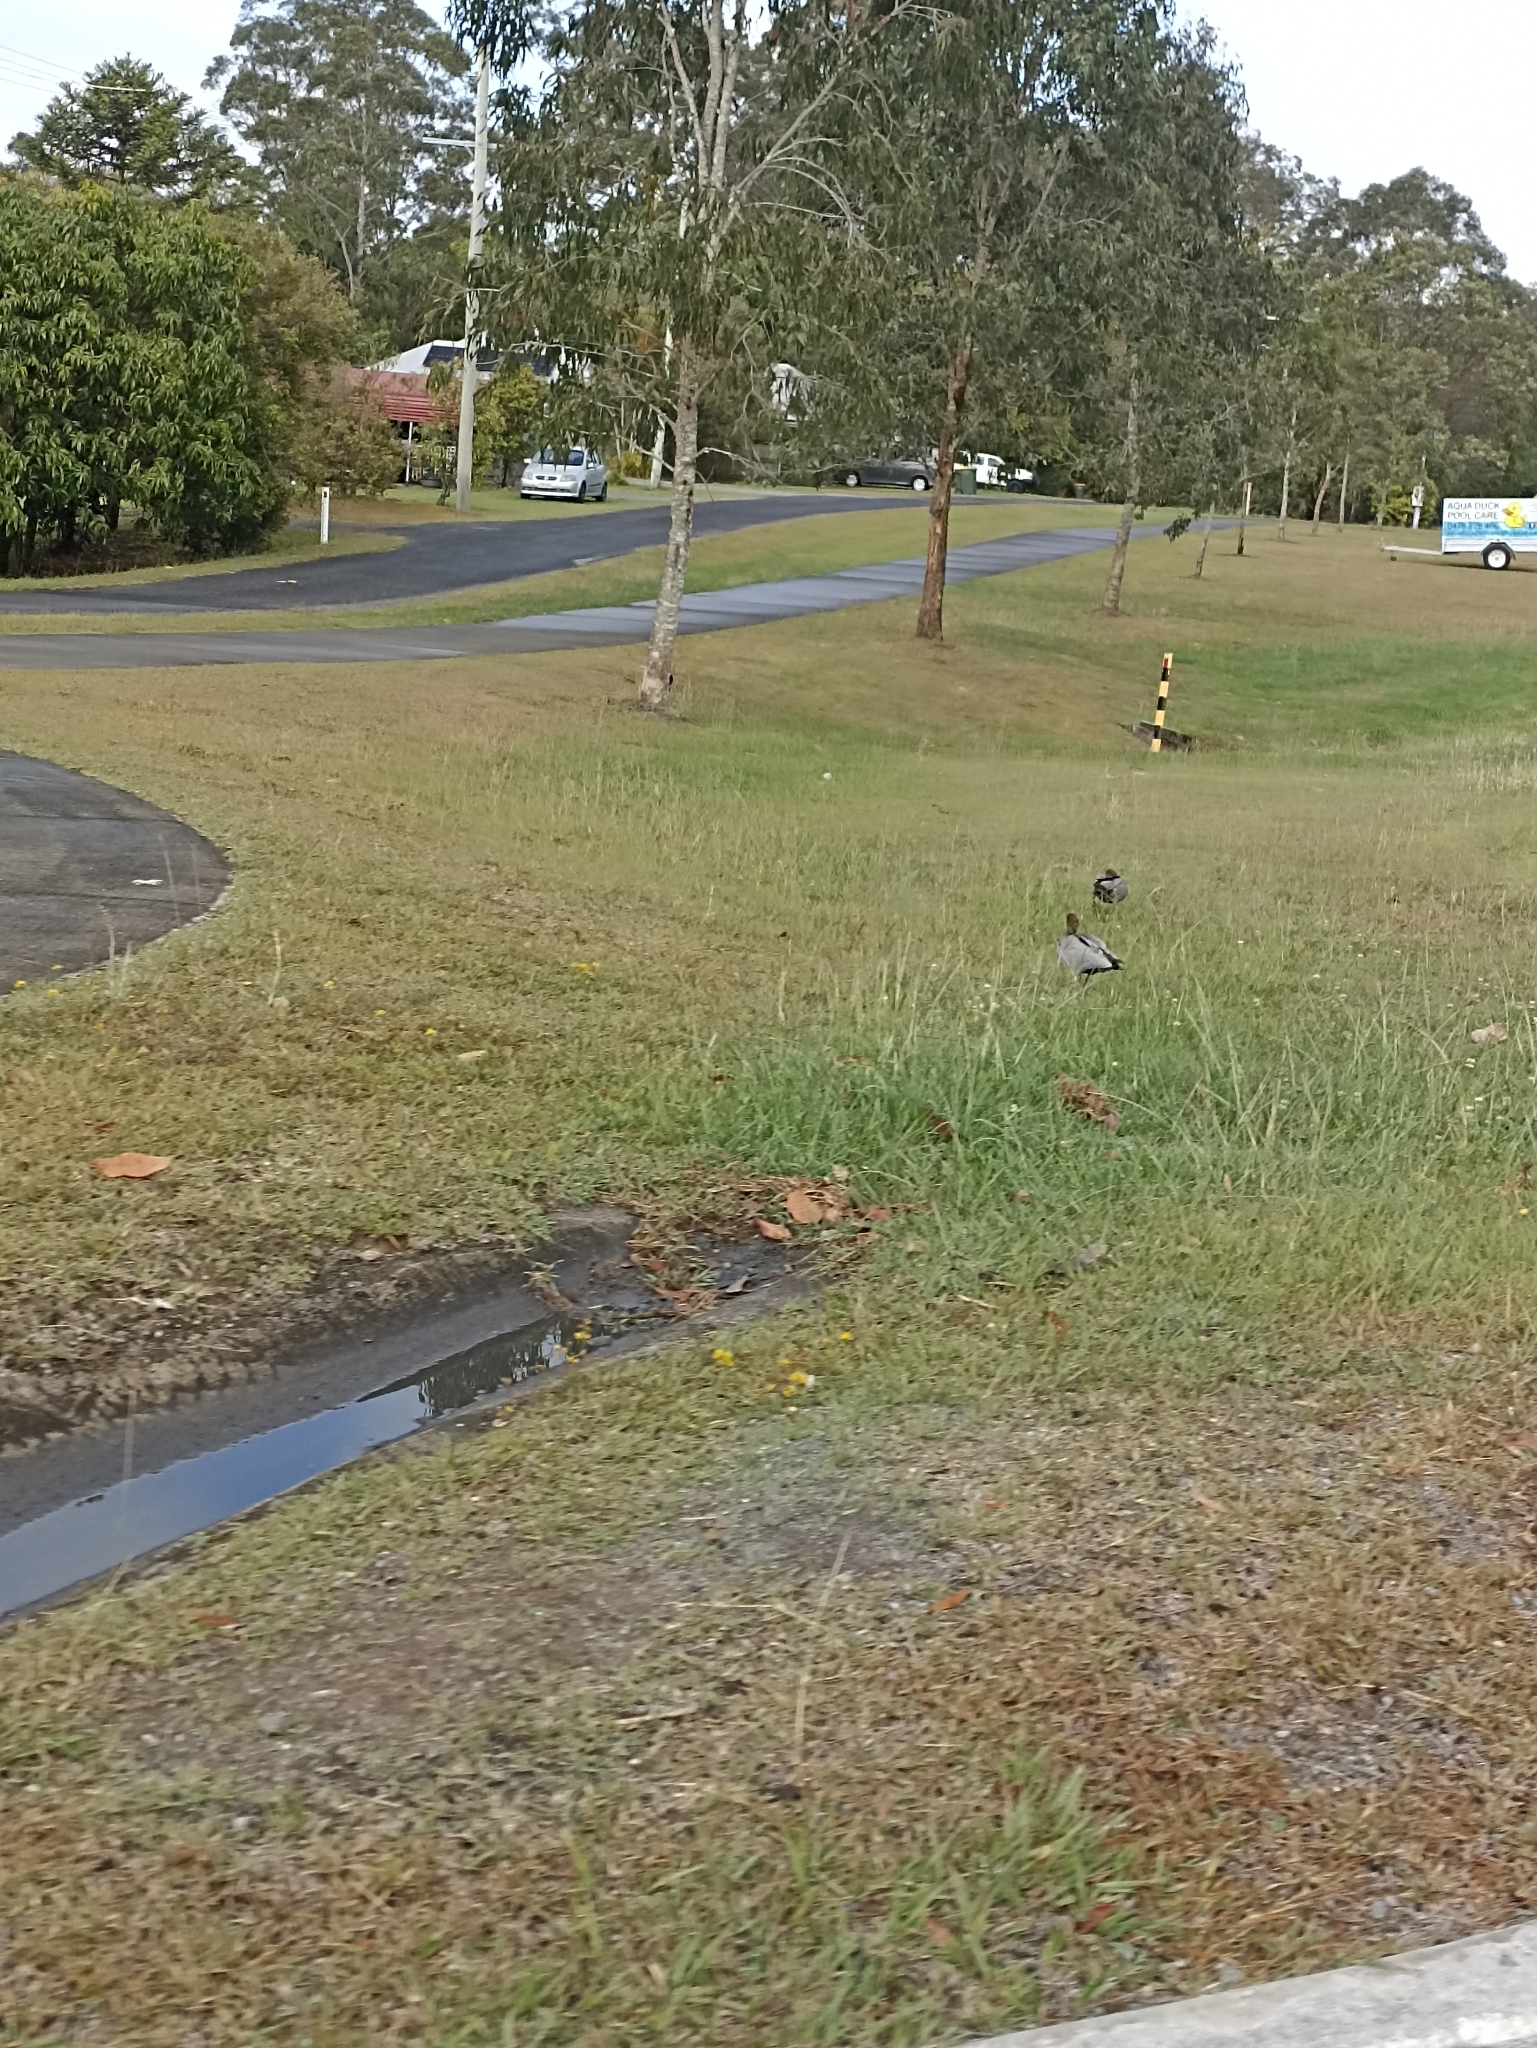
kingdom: Animalia
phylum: Chordata
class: Aves
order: Anseriformes
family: Anatidae
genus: Chenonetta
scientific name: Chenonetta jubata
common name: Maned duck
